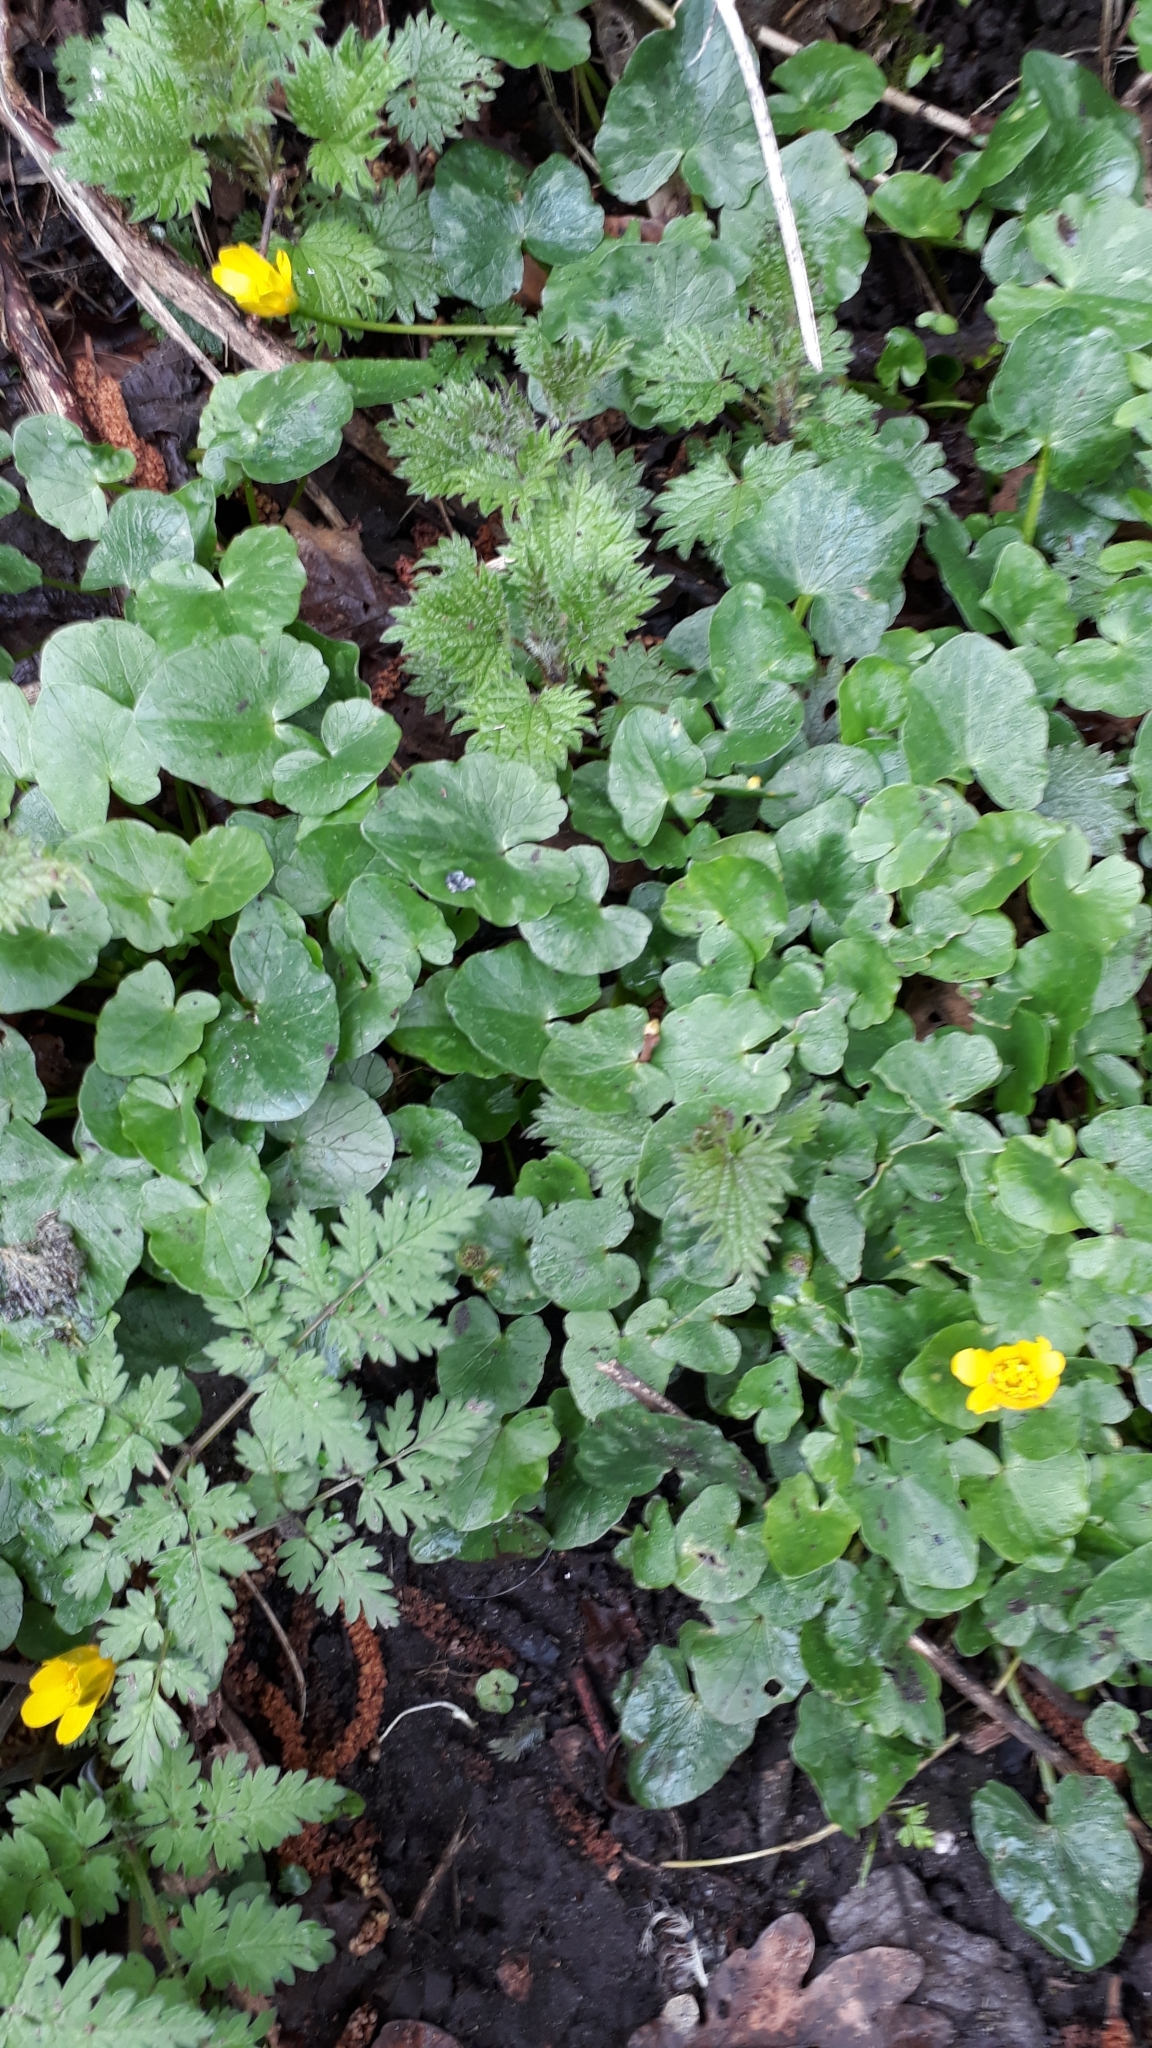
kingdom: Plantae
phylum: Tracheophyta
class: Magnoliopsida
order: Ranunculales
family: Ranunculaceae
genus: Ficaria
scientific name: Ficaria verna
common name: Lesser celandine
